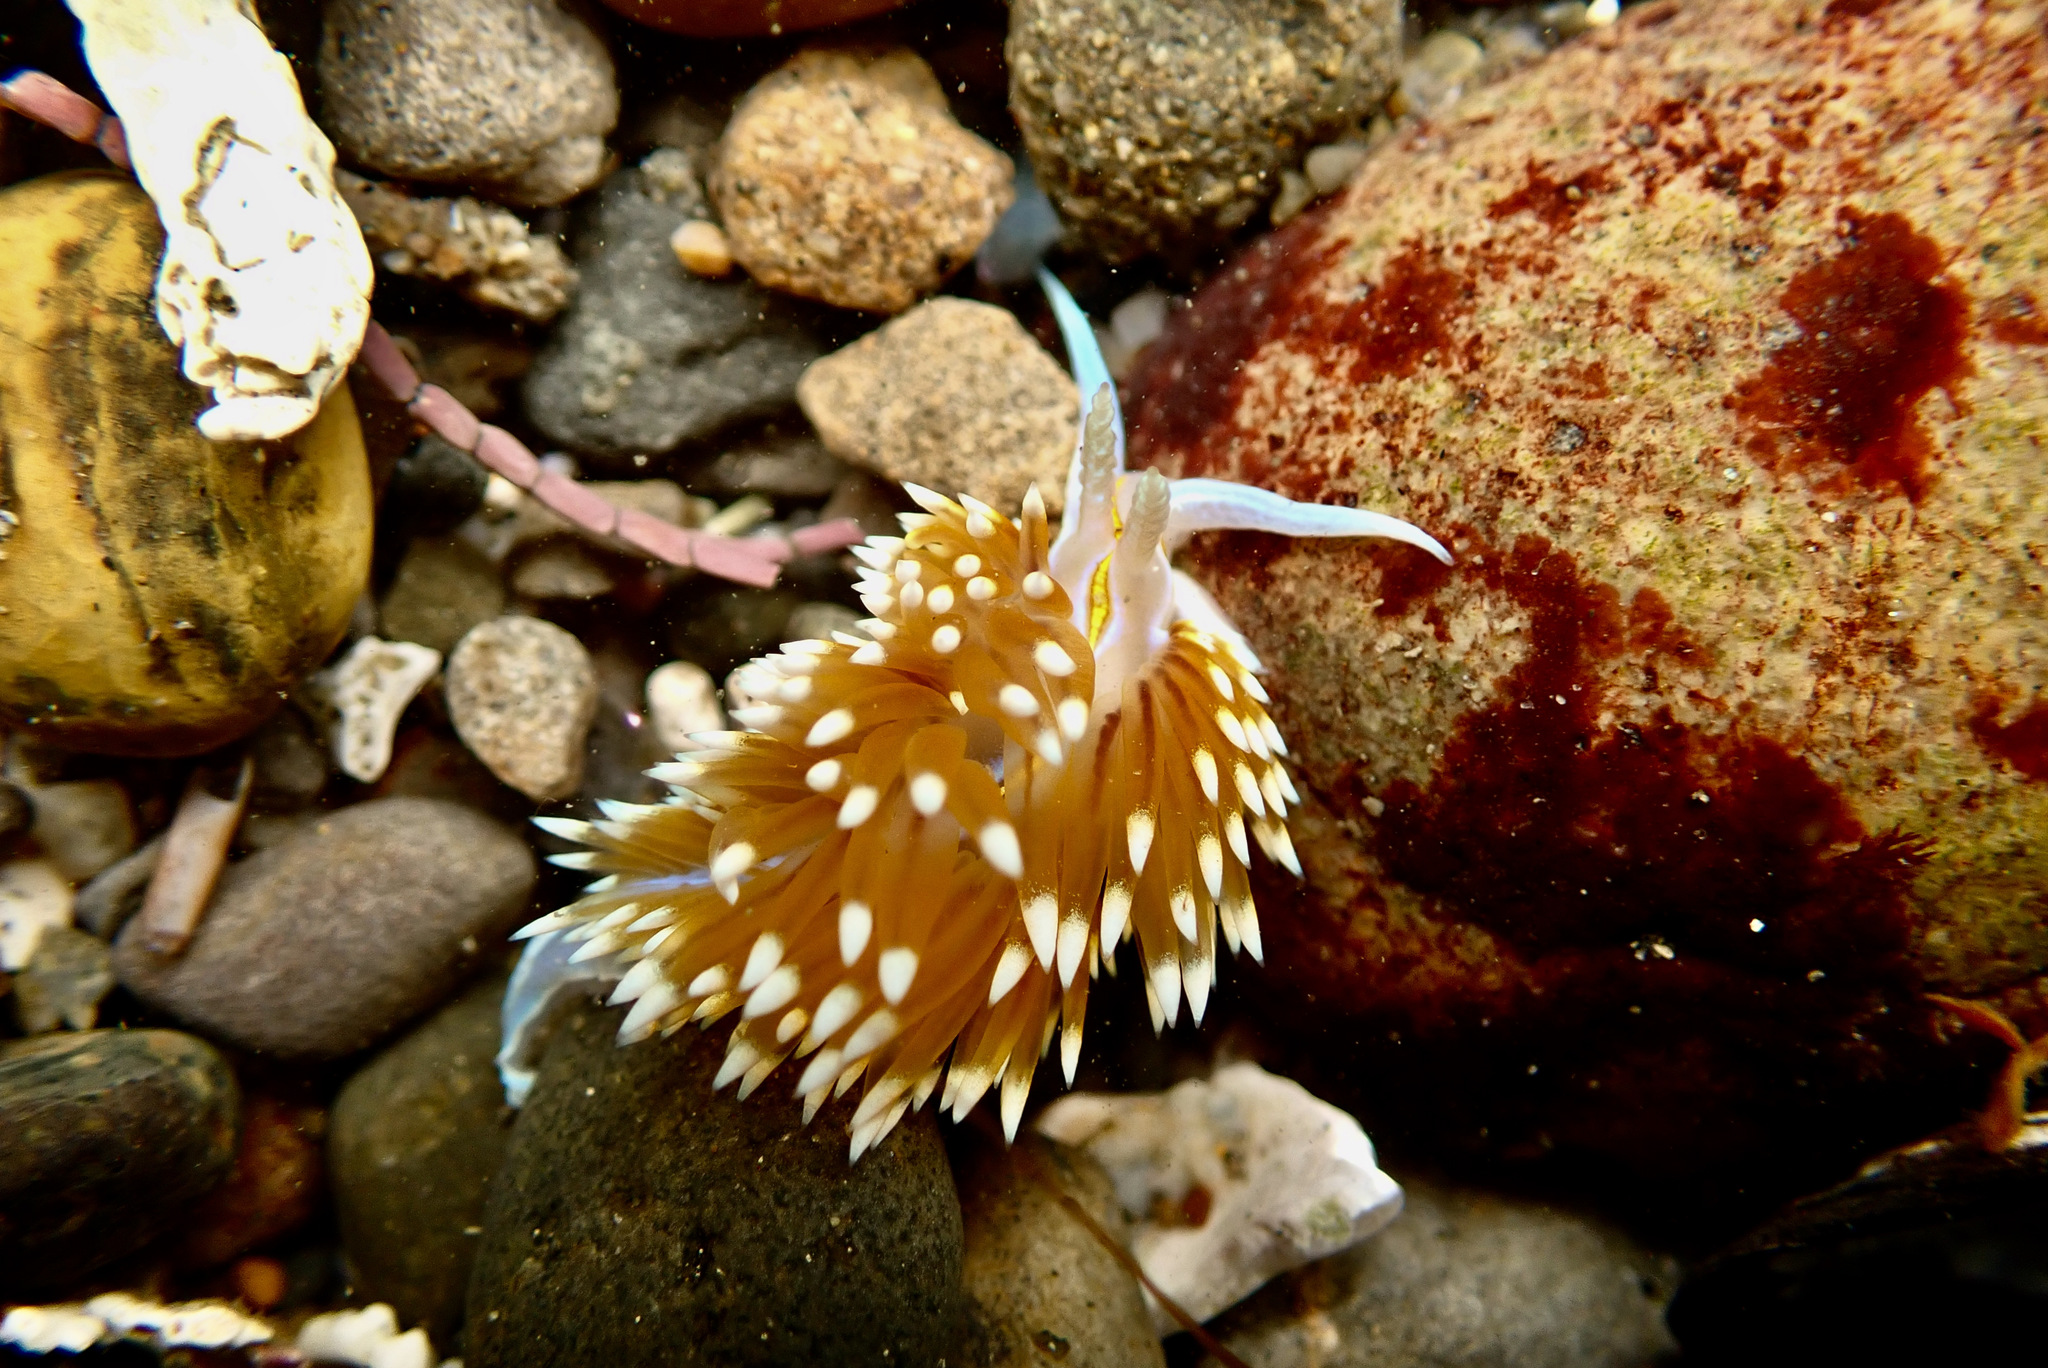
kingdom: Animalia
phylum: Mollusca
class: Gastropoda
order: Nudibranchia
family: Myrrhinidae
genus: Hermissenda
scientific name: Hermissenda opalescens
